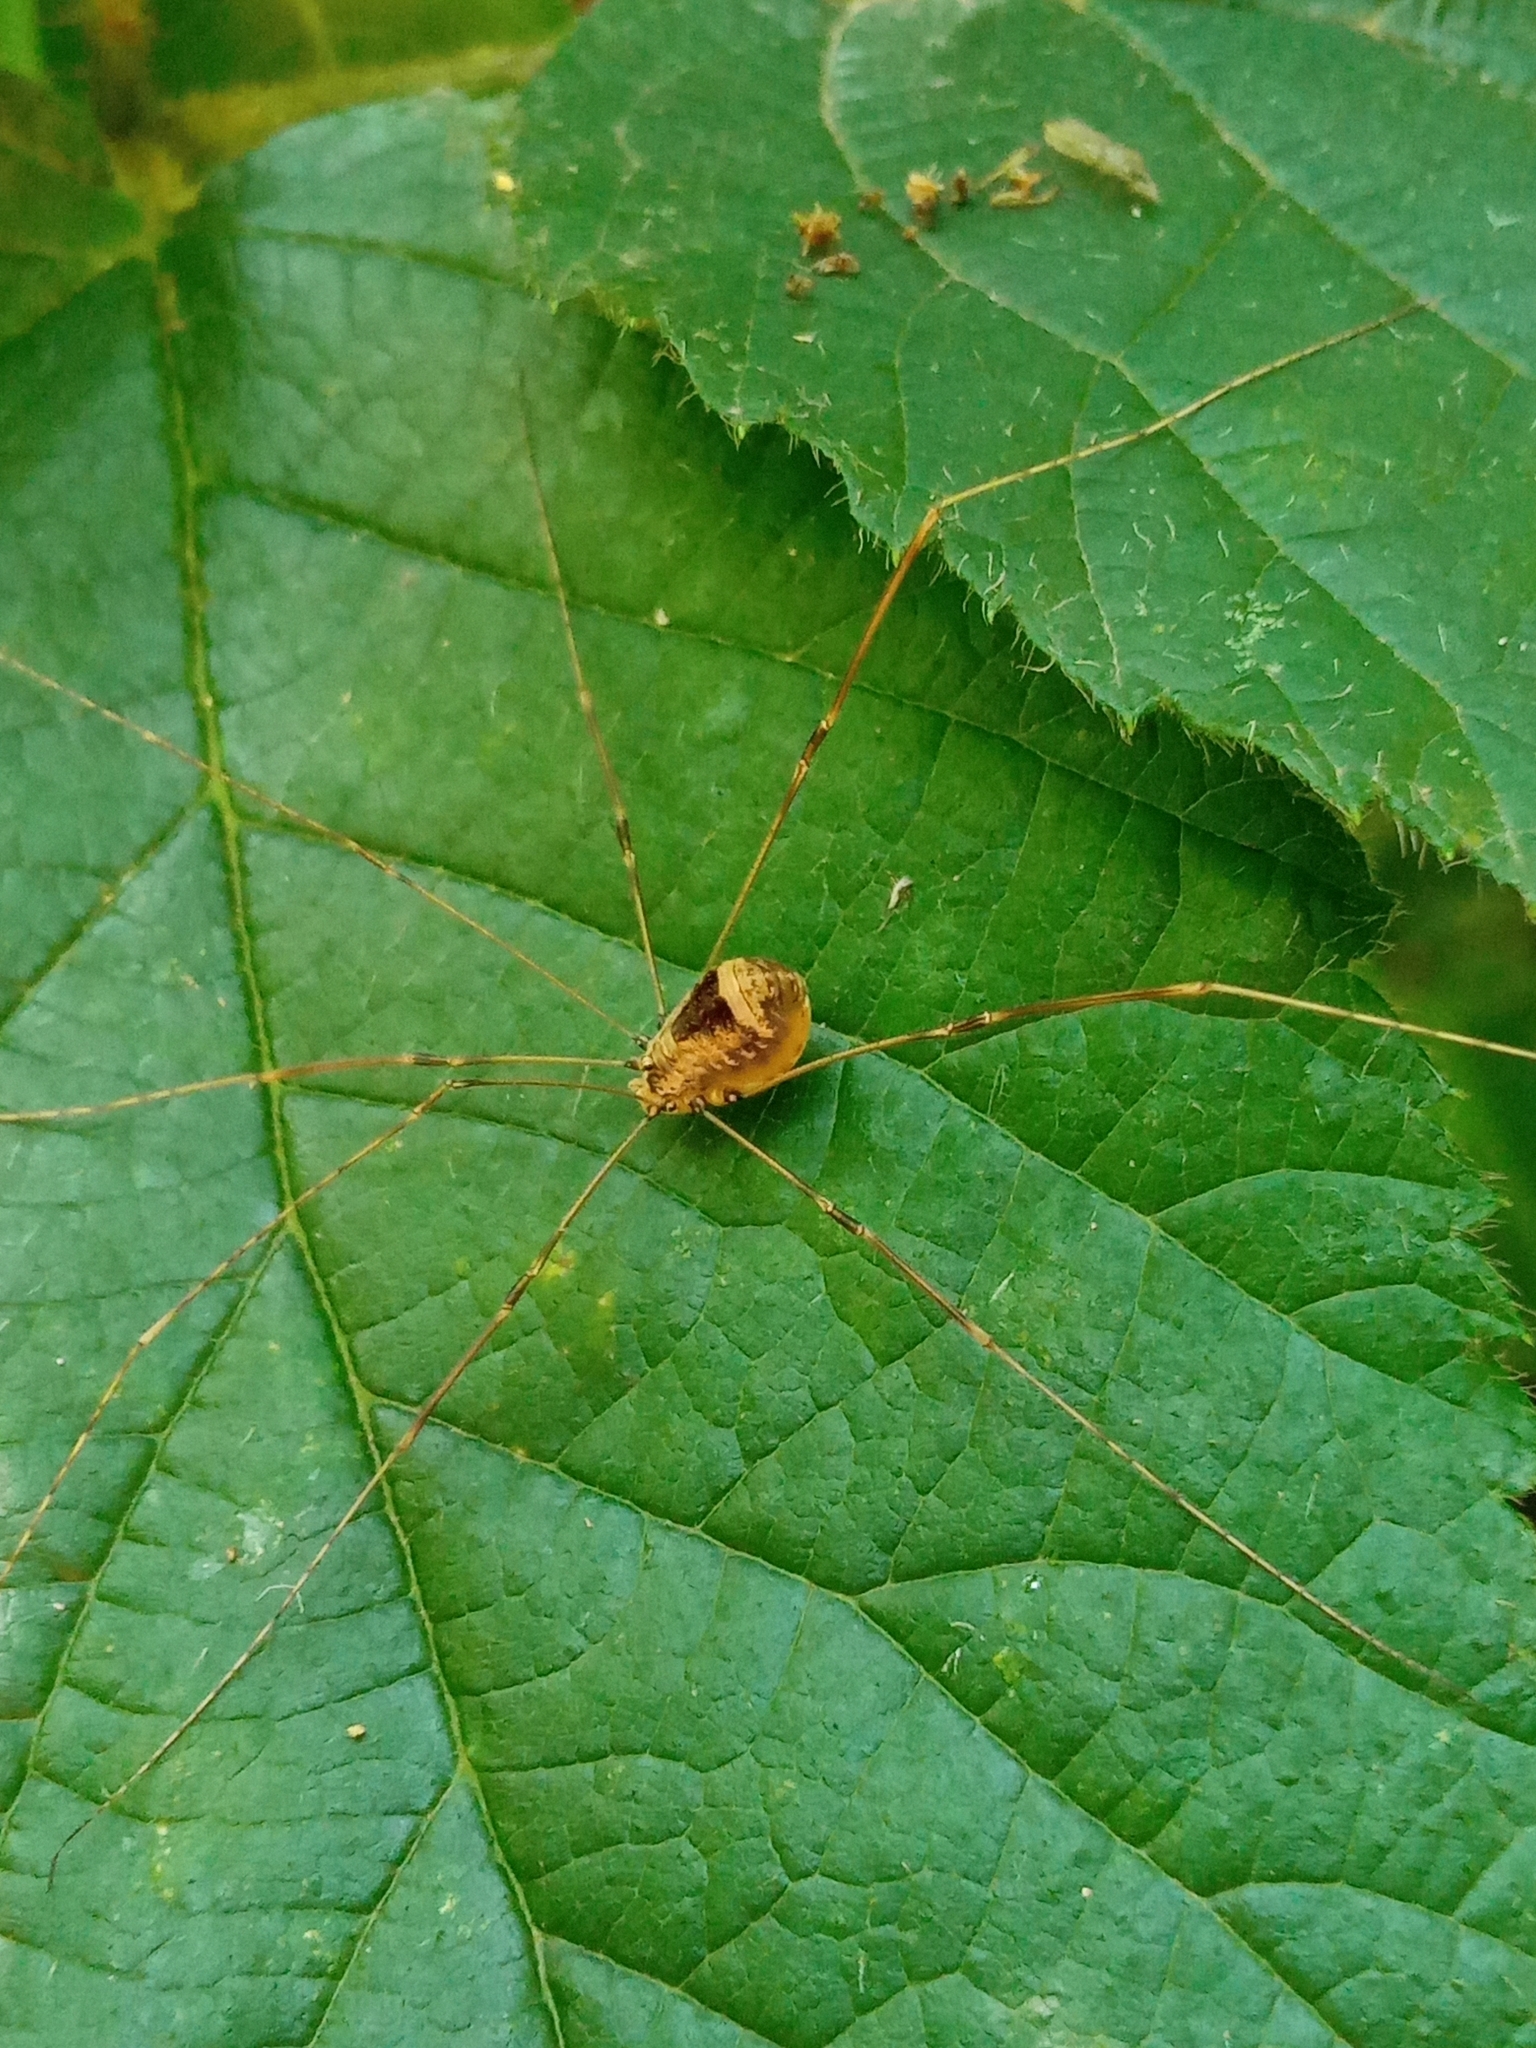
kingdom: Animalia
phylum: Arthropoda
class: Arachnida
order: Opiliones
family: Sclerosomatidae
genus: Leiobunum
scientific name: Leiobunum blackwalli
